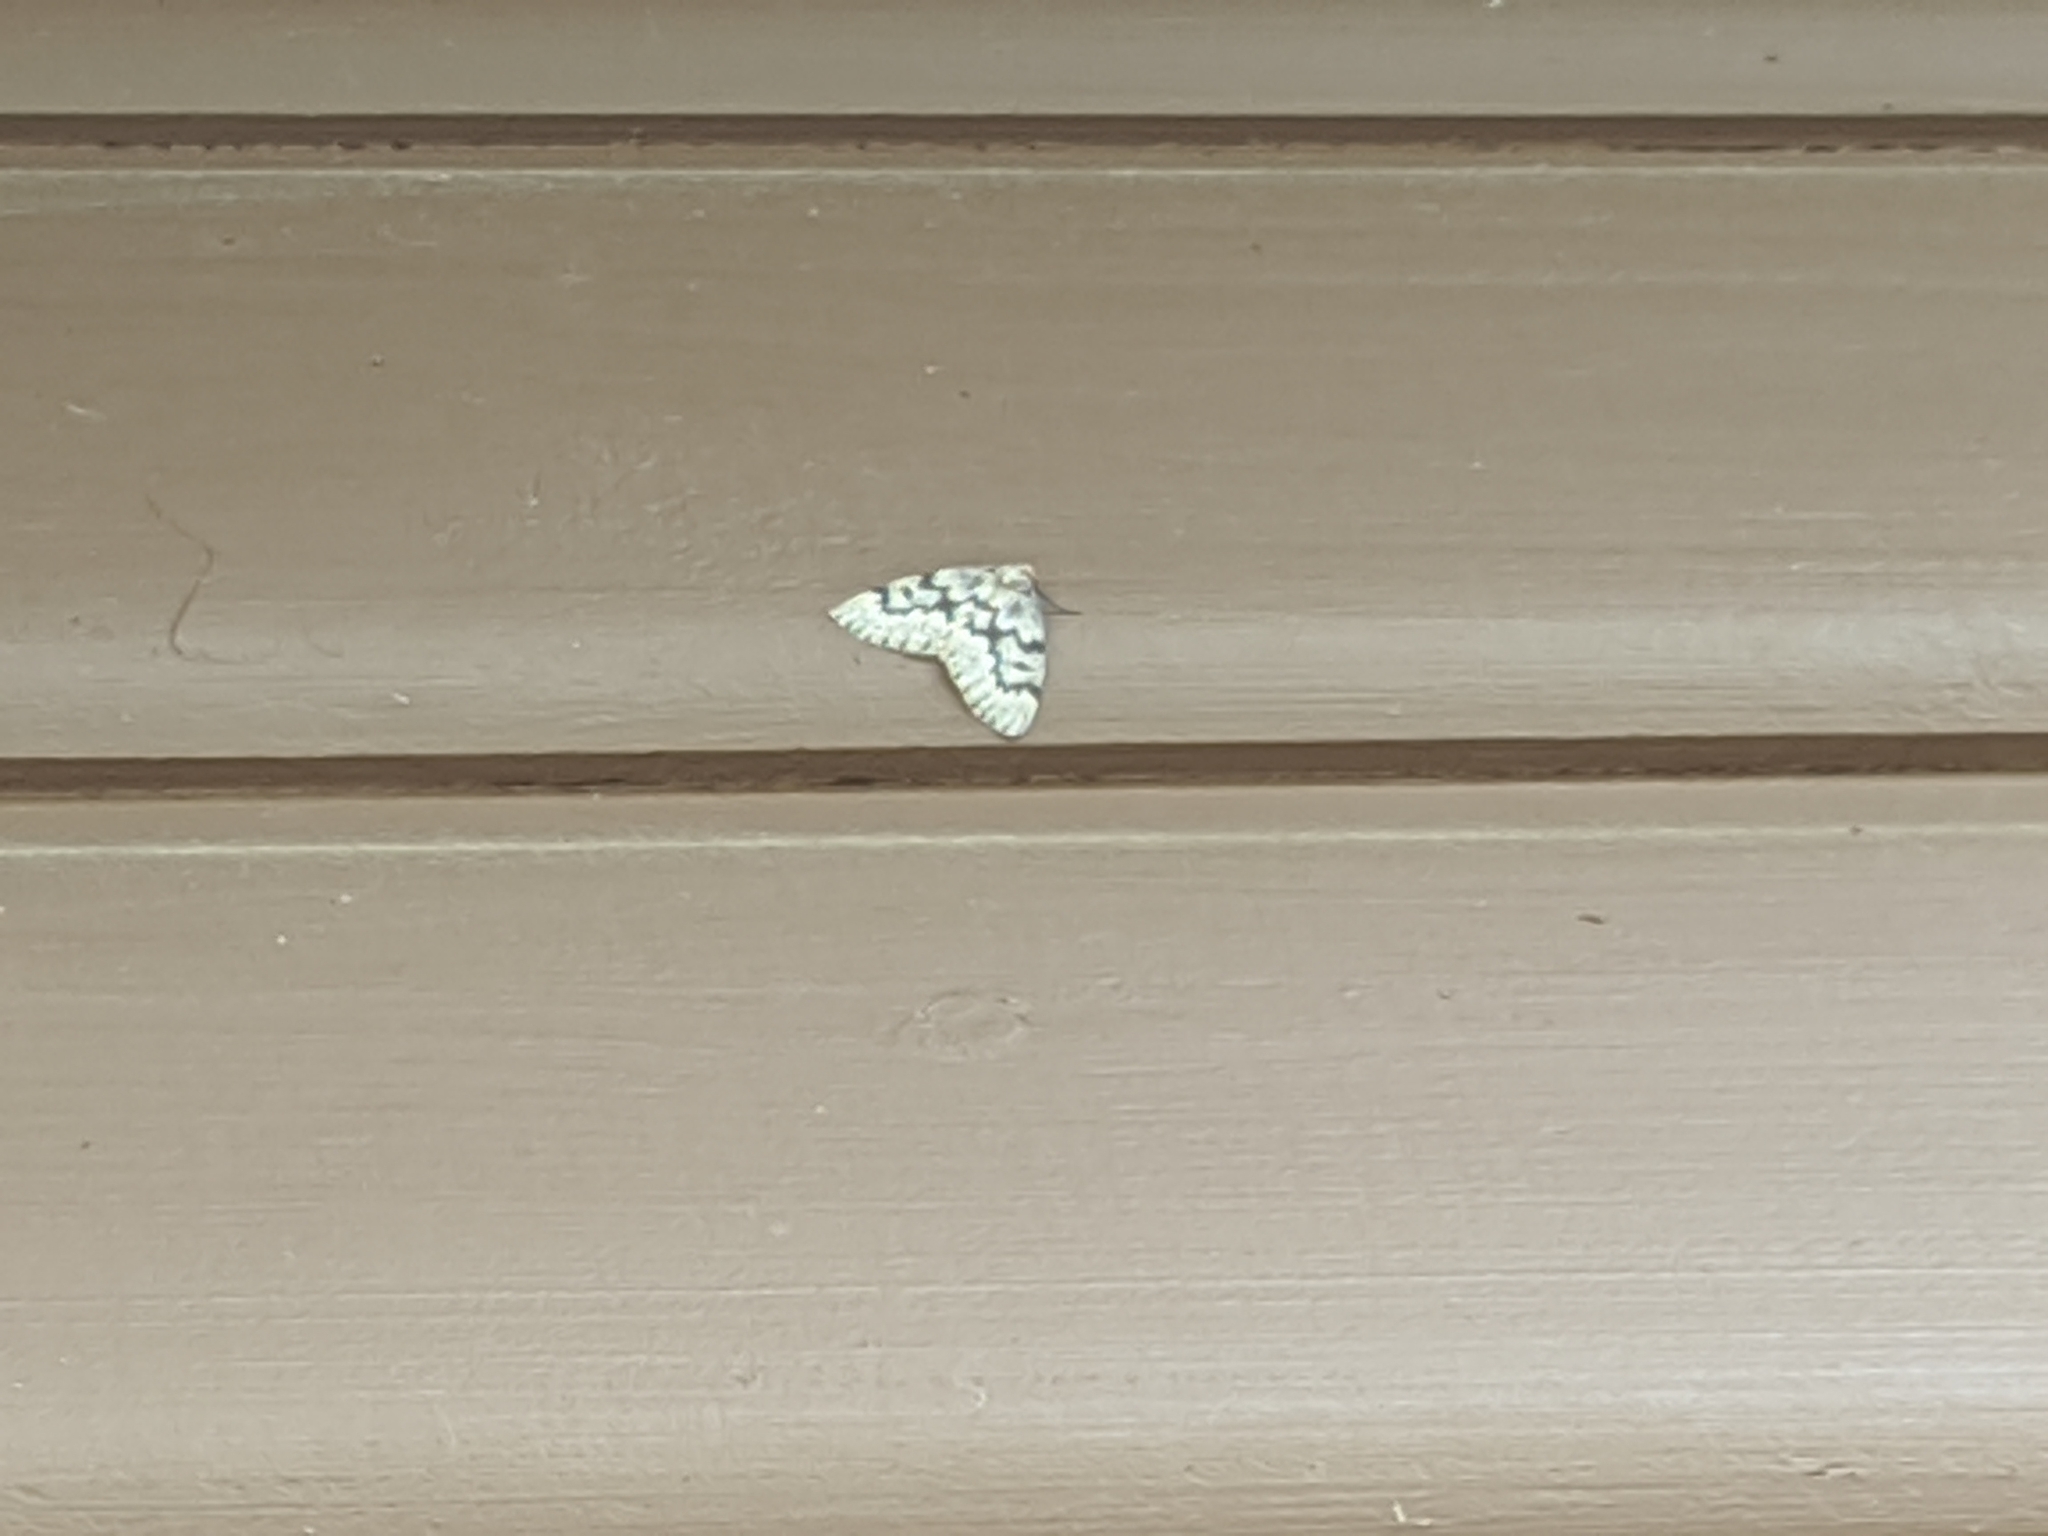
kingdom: Animalia
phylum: Arthropoda
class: Insecta
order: Lepidoptera
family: Geometridae
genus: Nepytia
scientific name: Nepytia canosaria
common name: False hemlock looper
